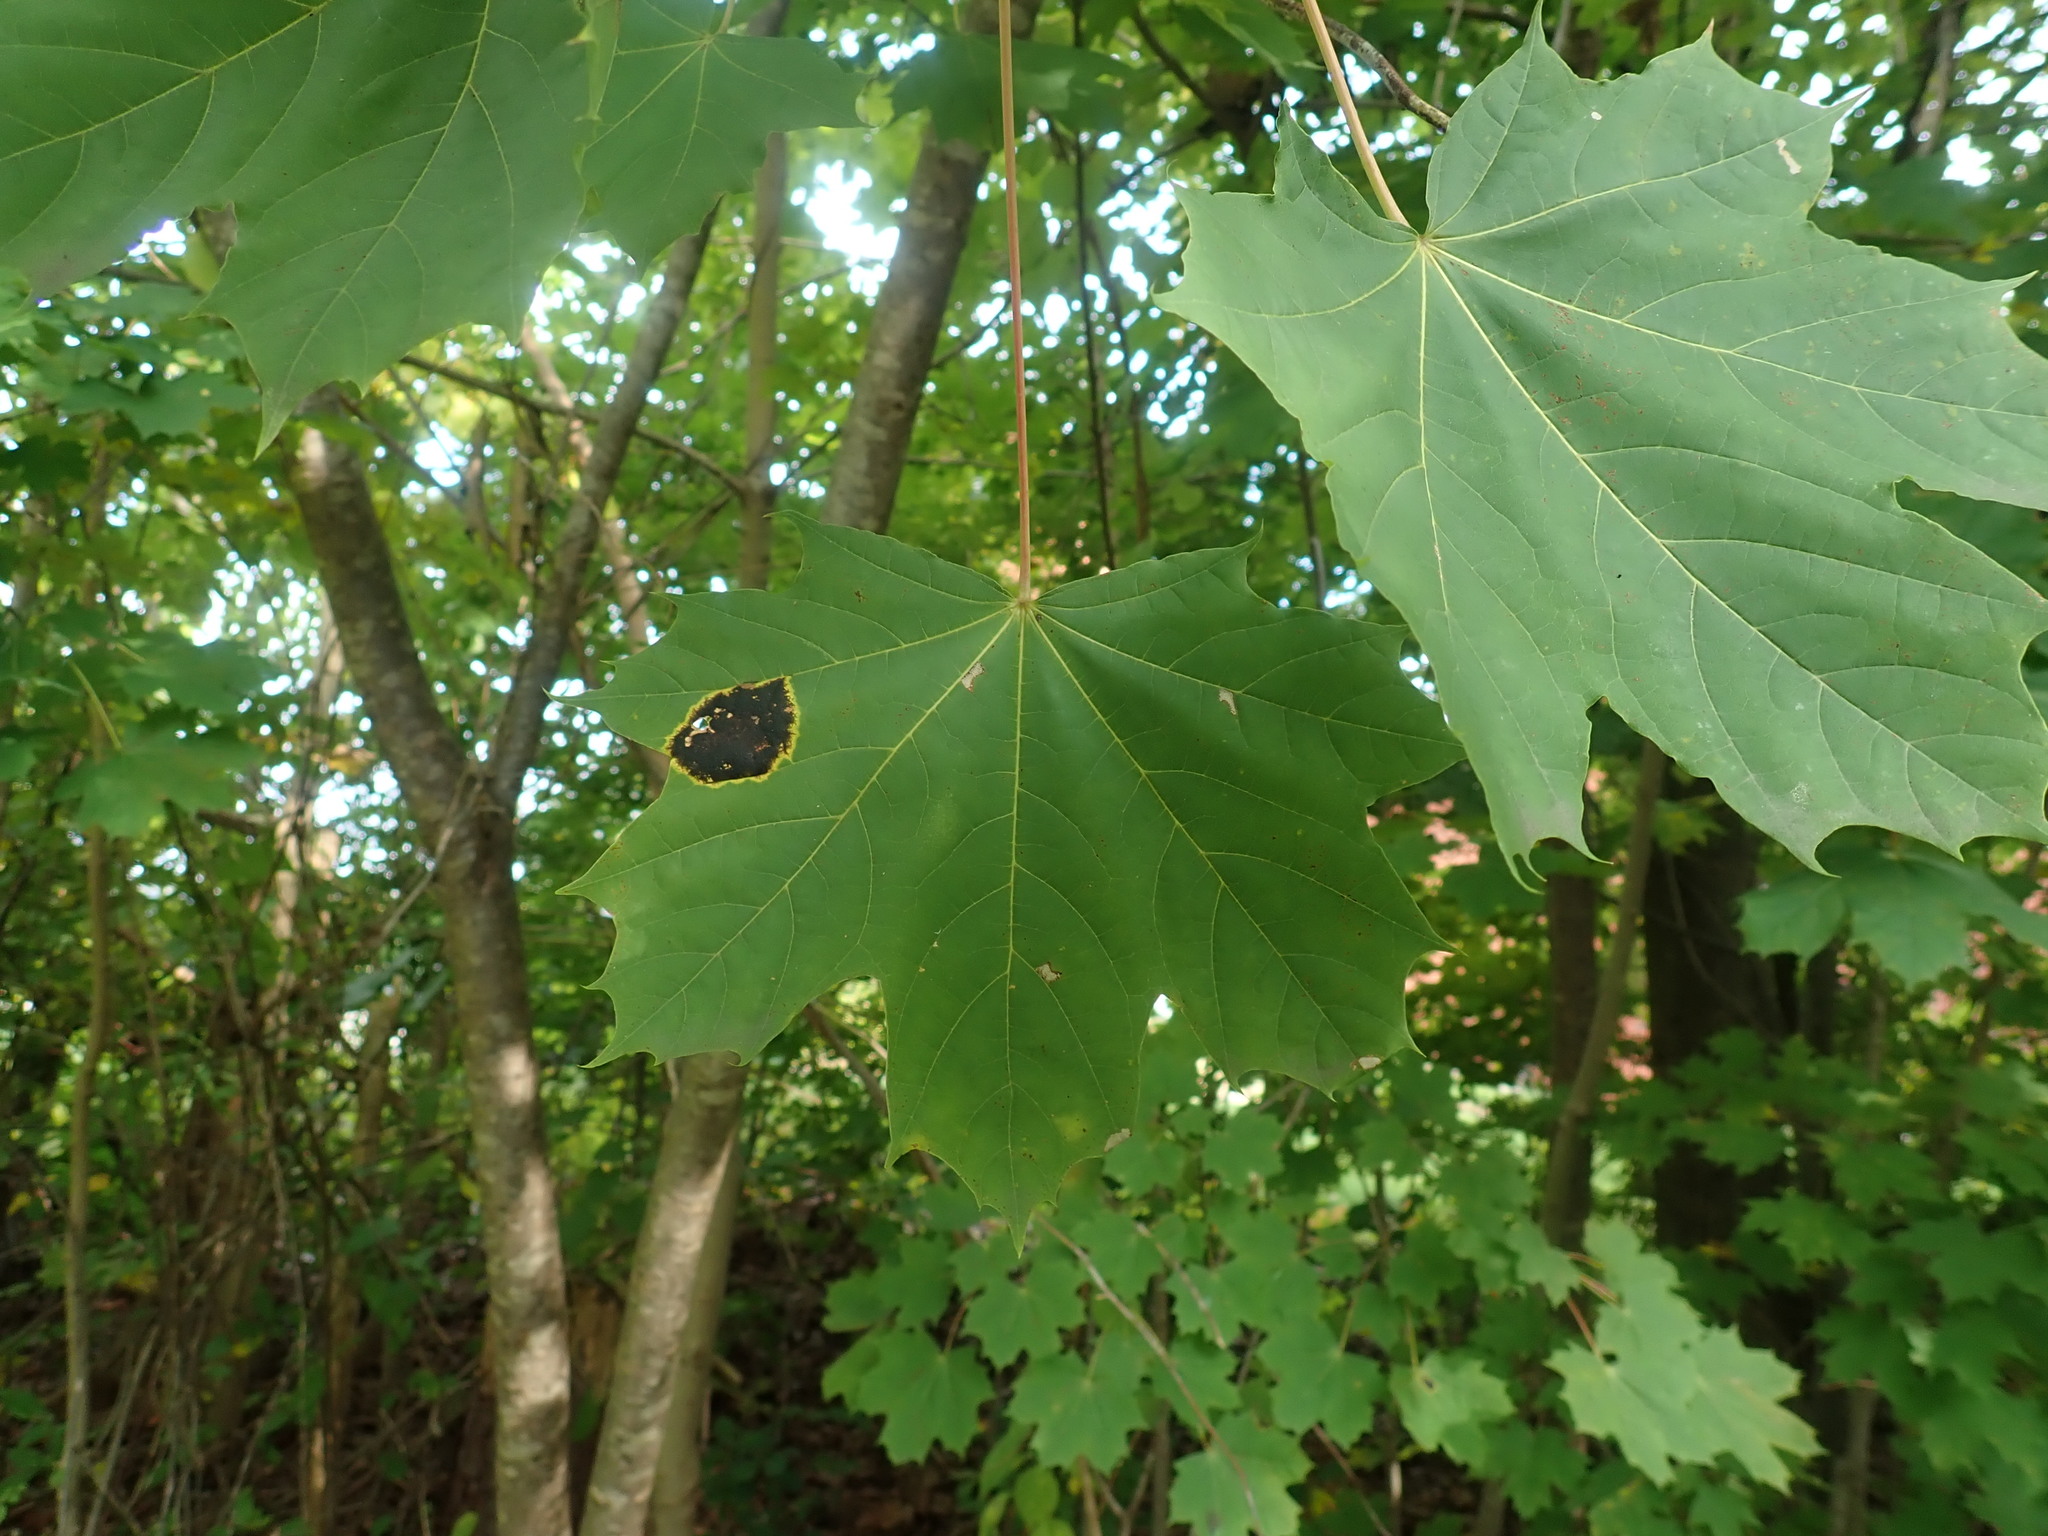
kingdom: Fungi
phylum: Ascomycota
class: Leotiomycetes
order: Rhytismatales
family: Rhytismataceae
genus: Rhytisma
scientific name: Rhytisma acerinum
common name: European tar spot
